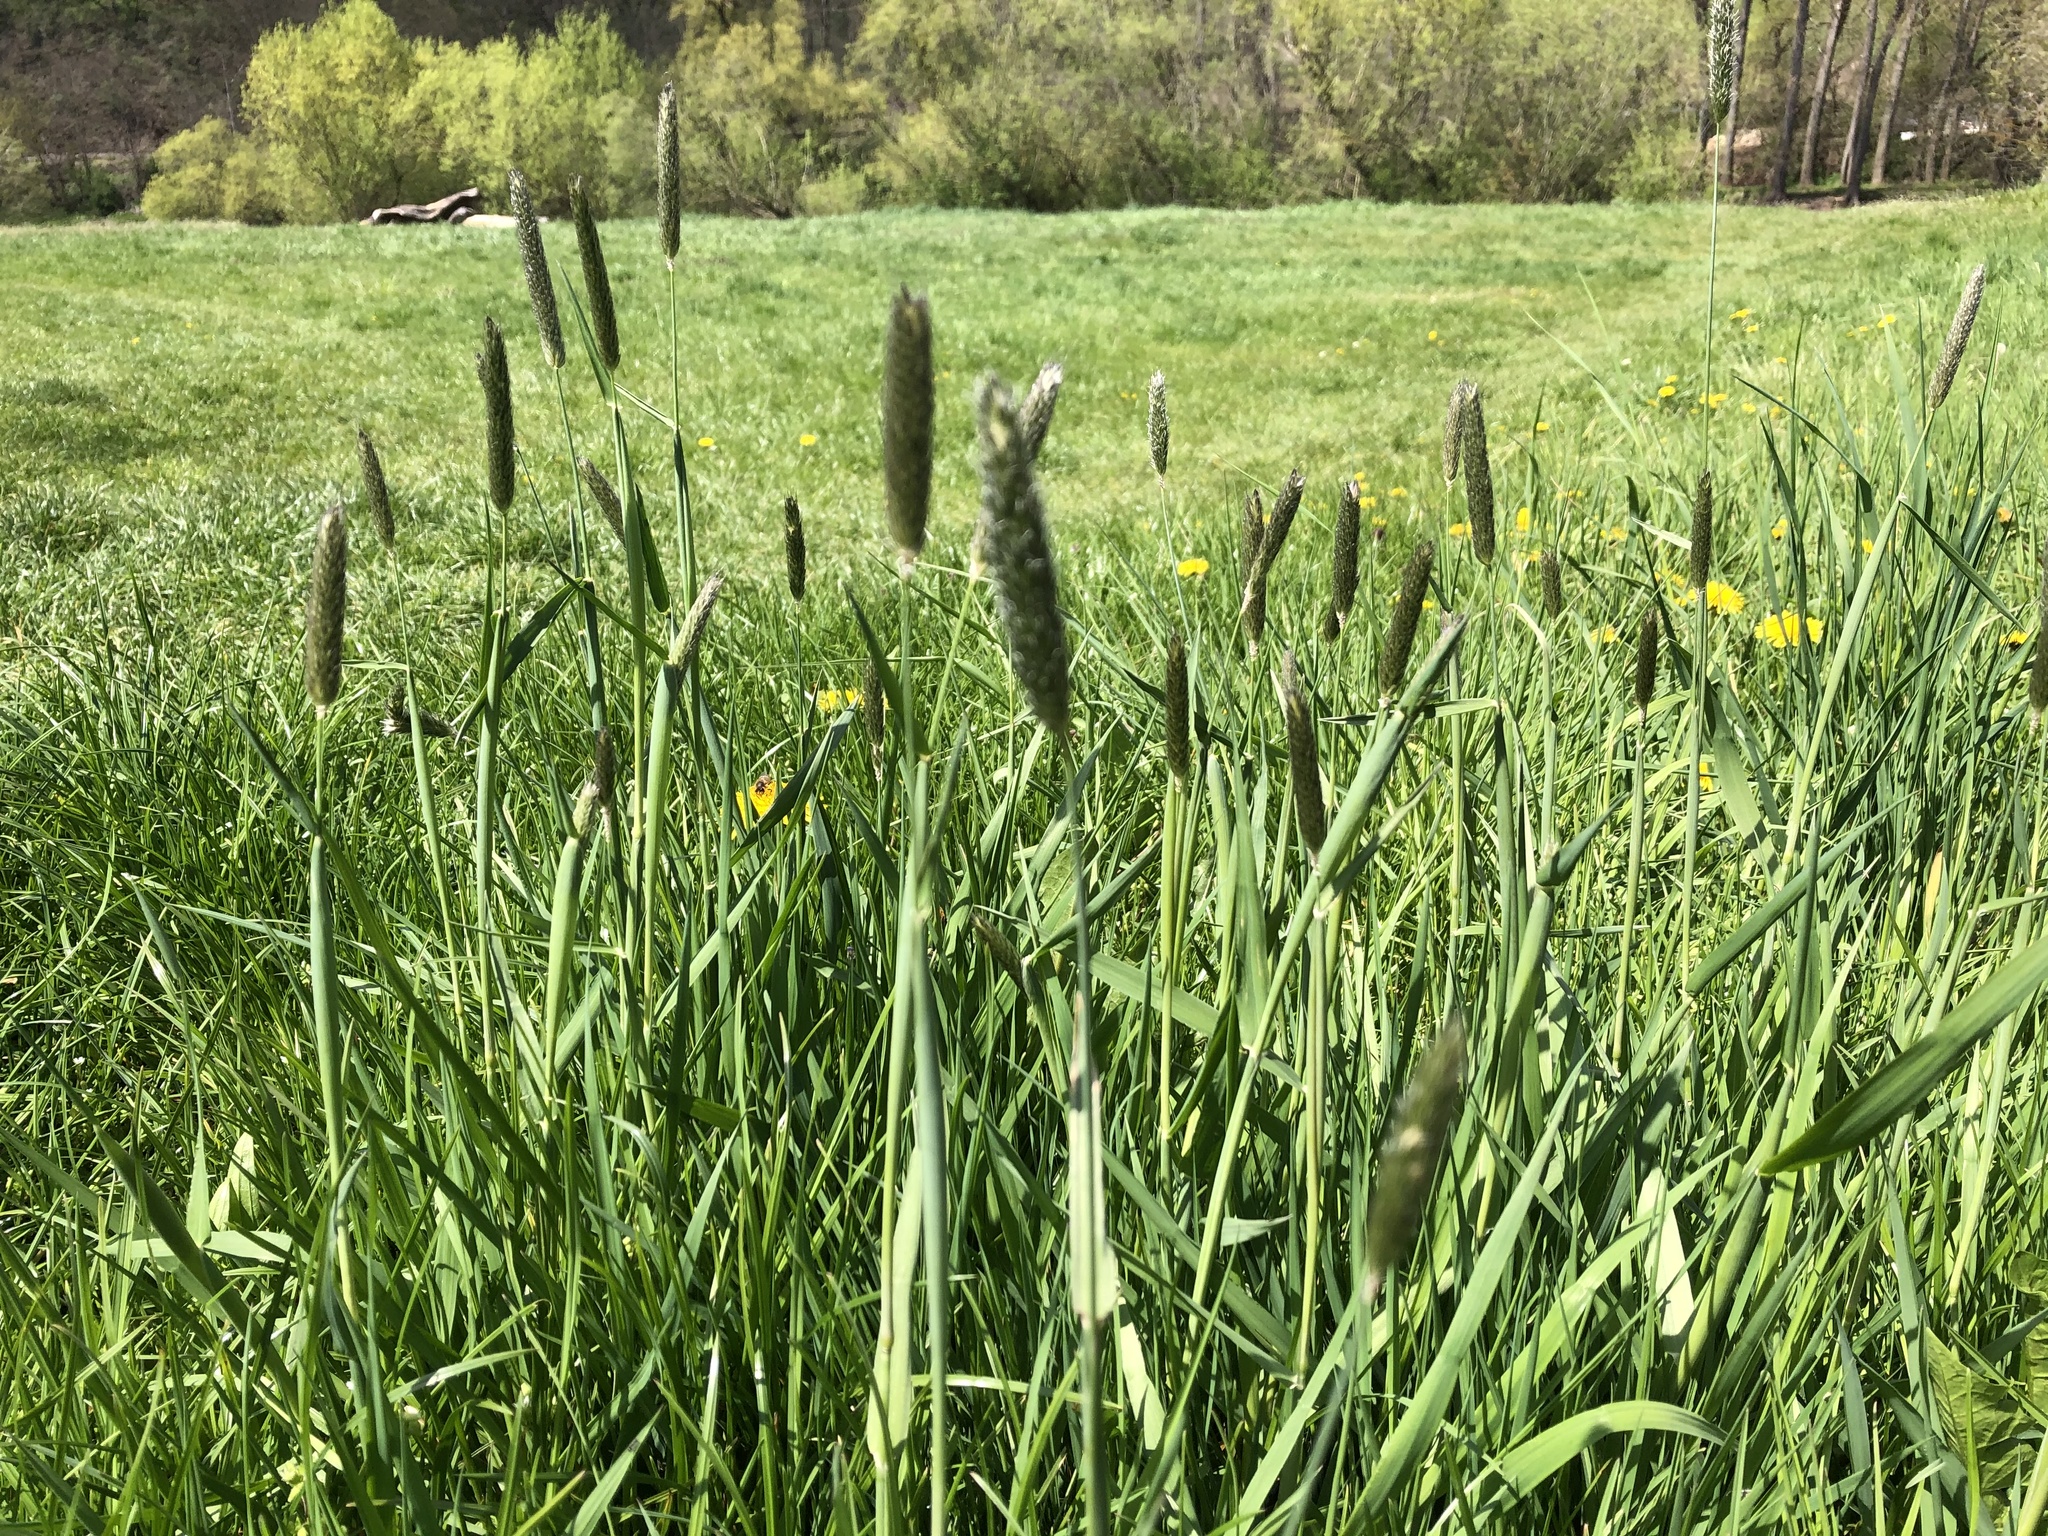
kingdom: Plantae
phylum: Tracheophyta
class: Liliopsida
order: Poales
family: Poaceae
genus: Alopecurus
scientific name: Alopecurus pratensis
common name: Meadow foxtail
